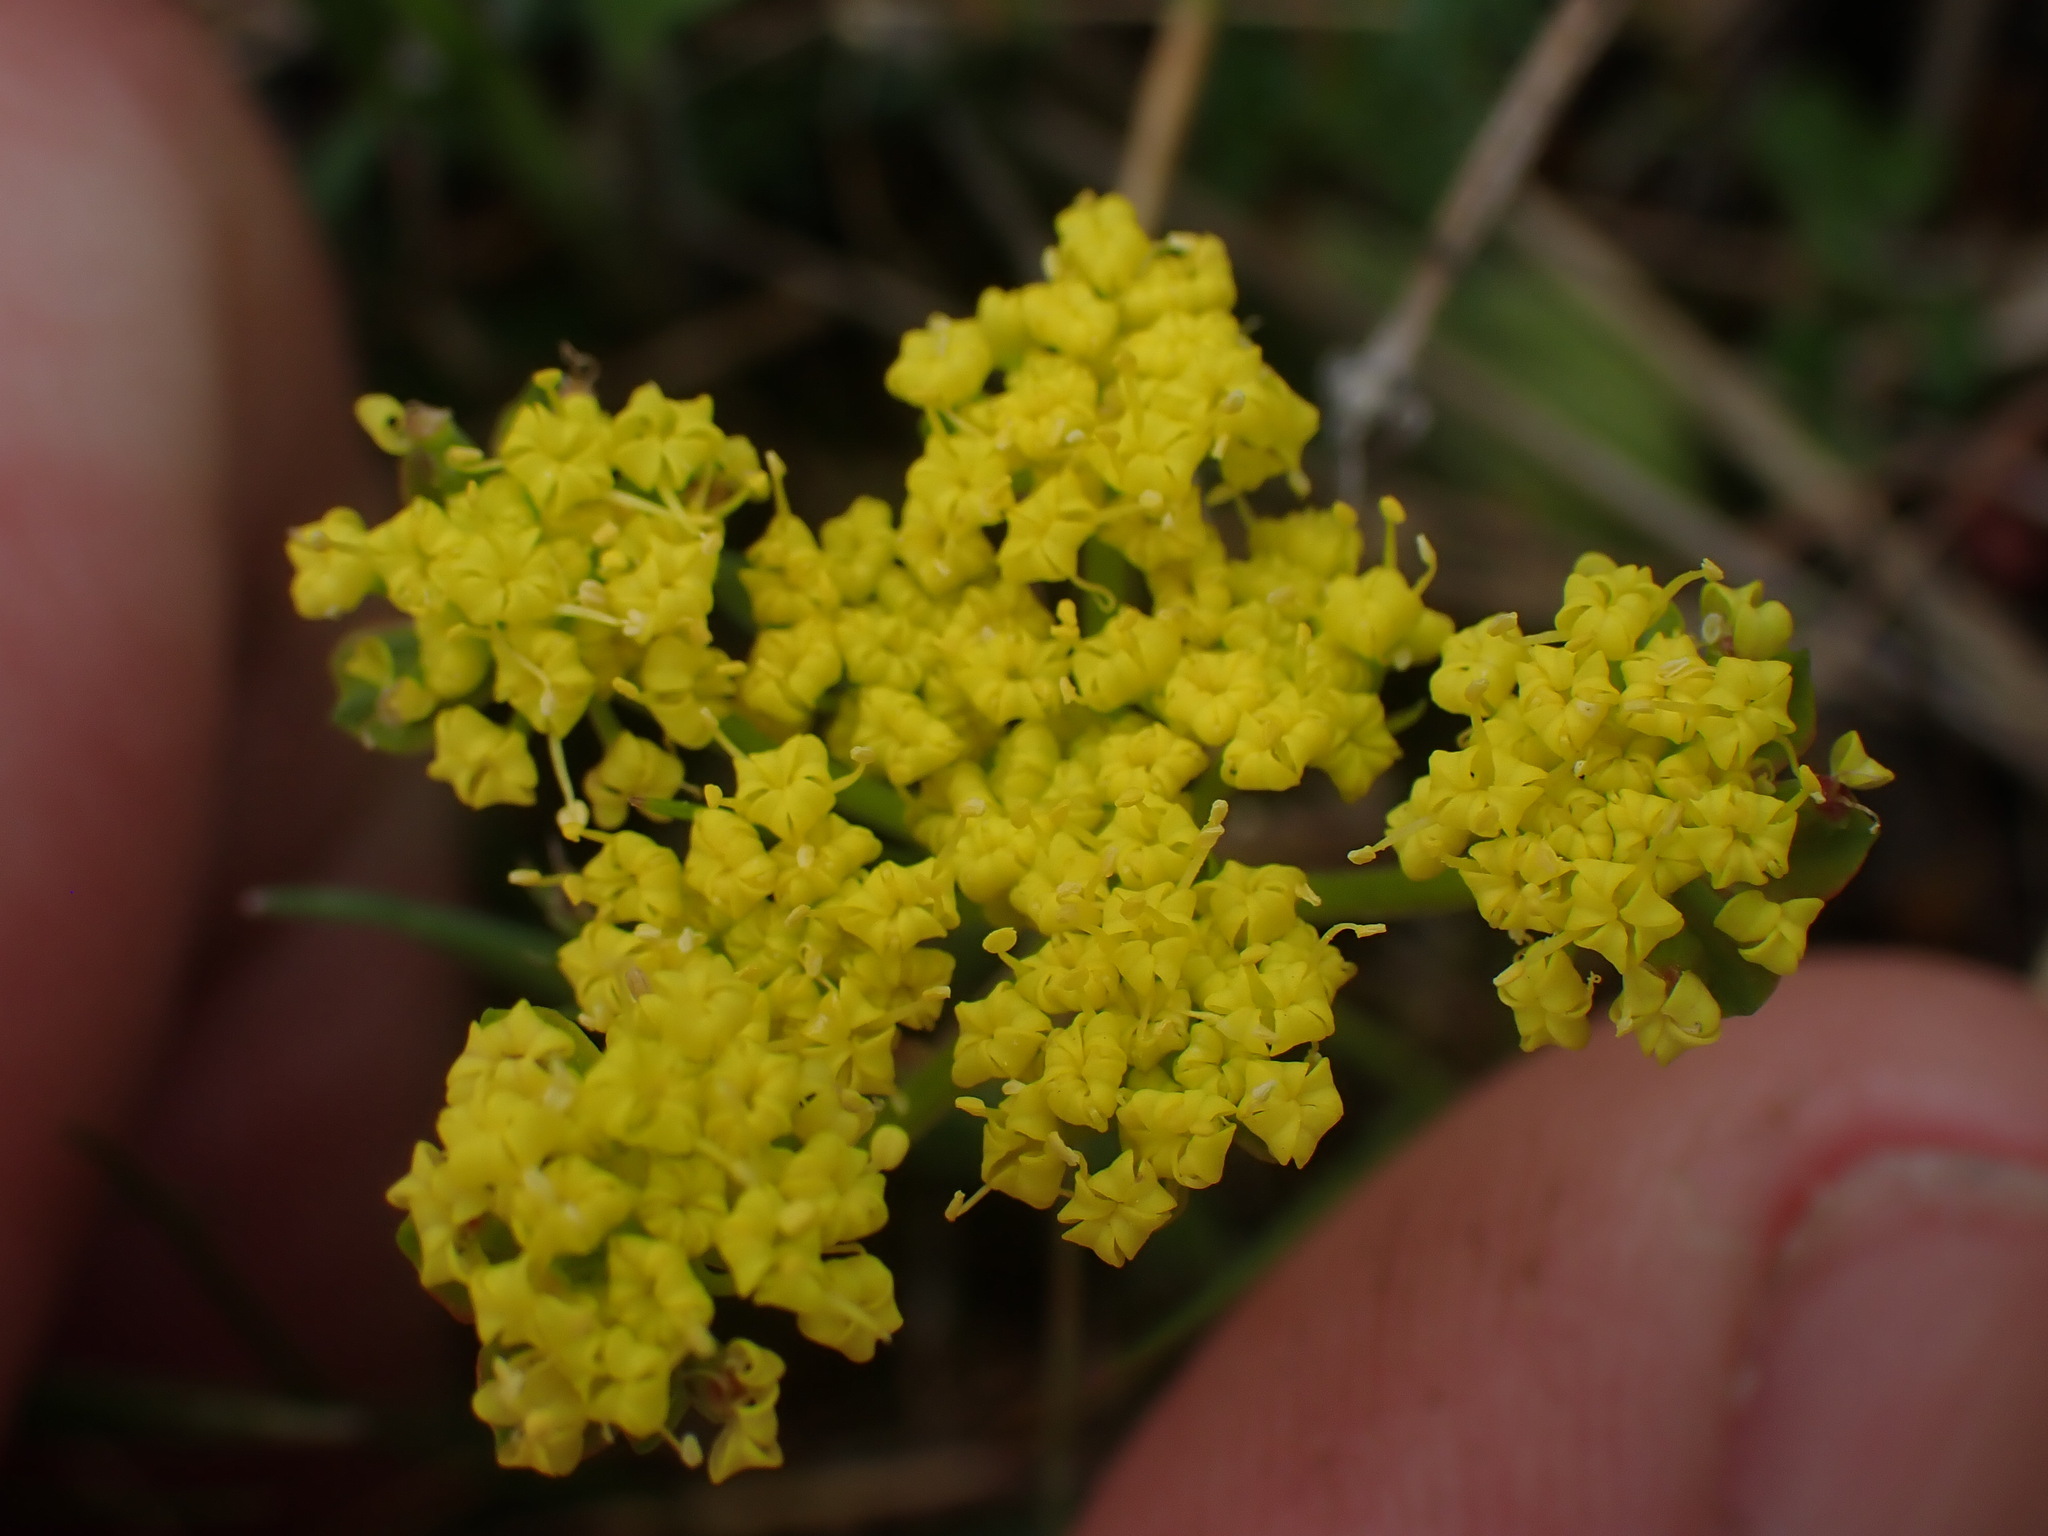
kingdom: Plantae
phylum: Tracheophyta
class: Magnoliopsida
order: Apiales
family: Apiaceae
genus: Lomatium
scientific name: Lomatium utriculatum
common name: Fine-leaf desert-parsley
